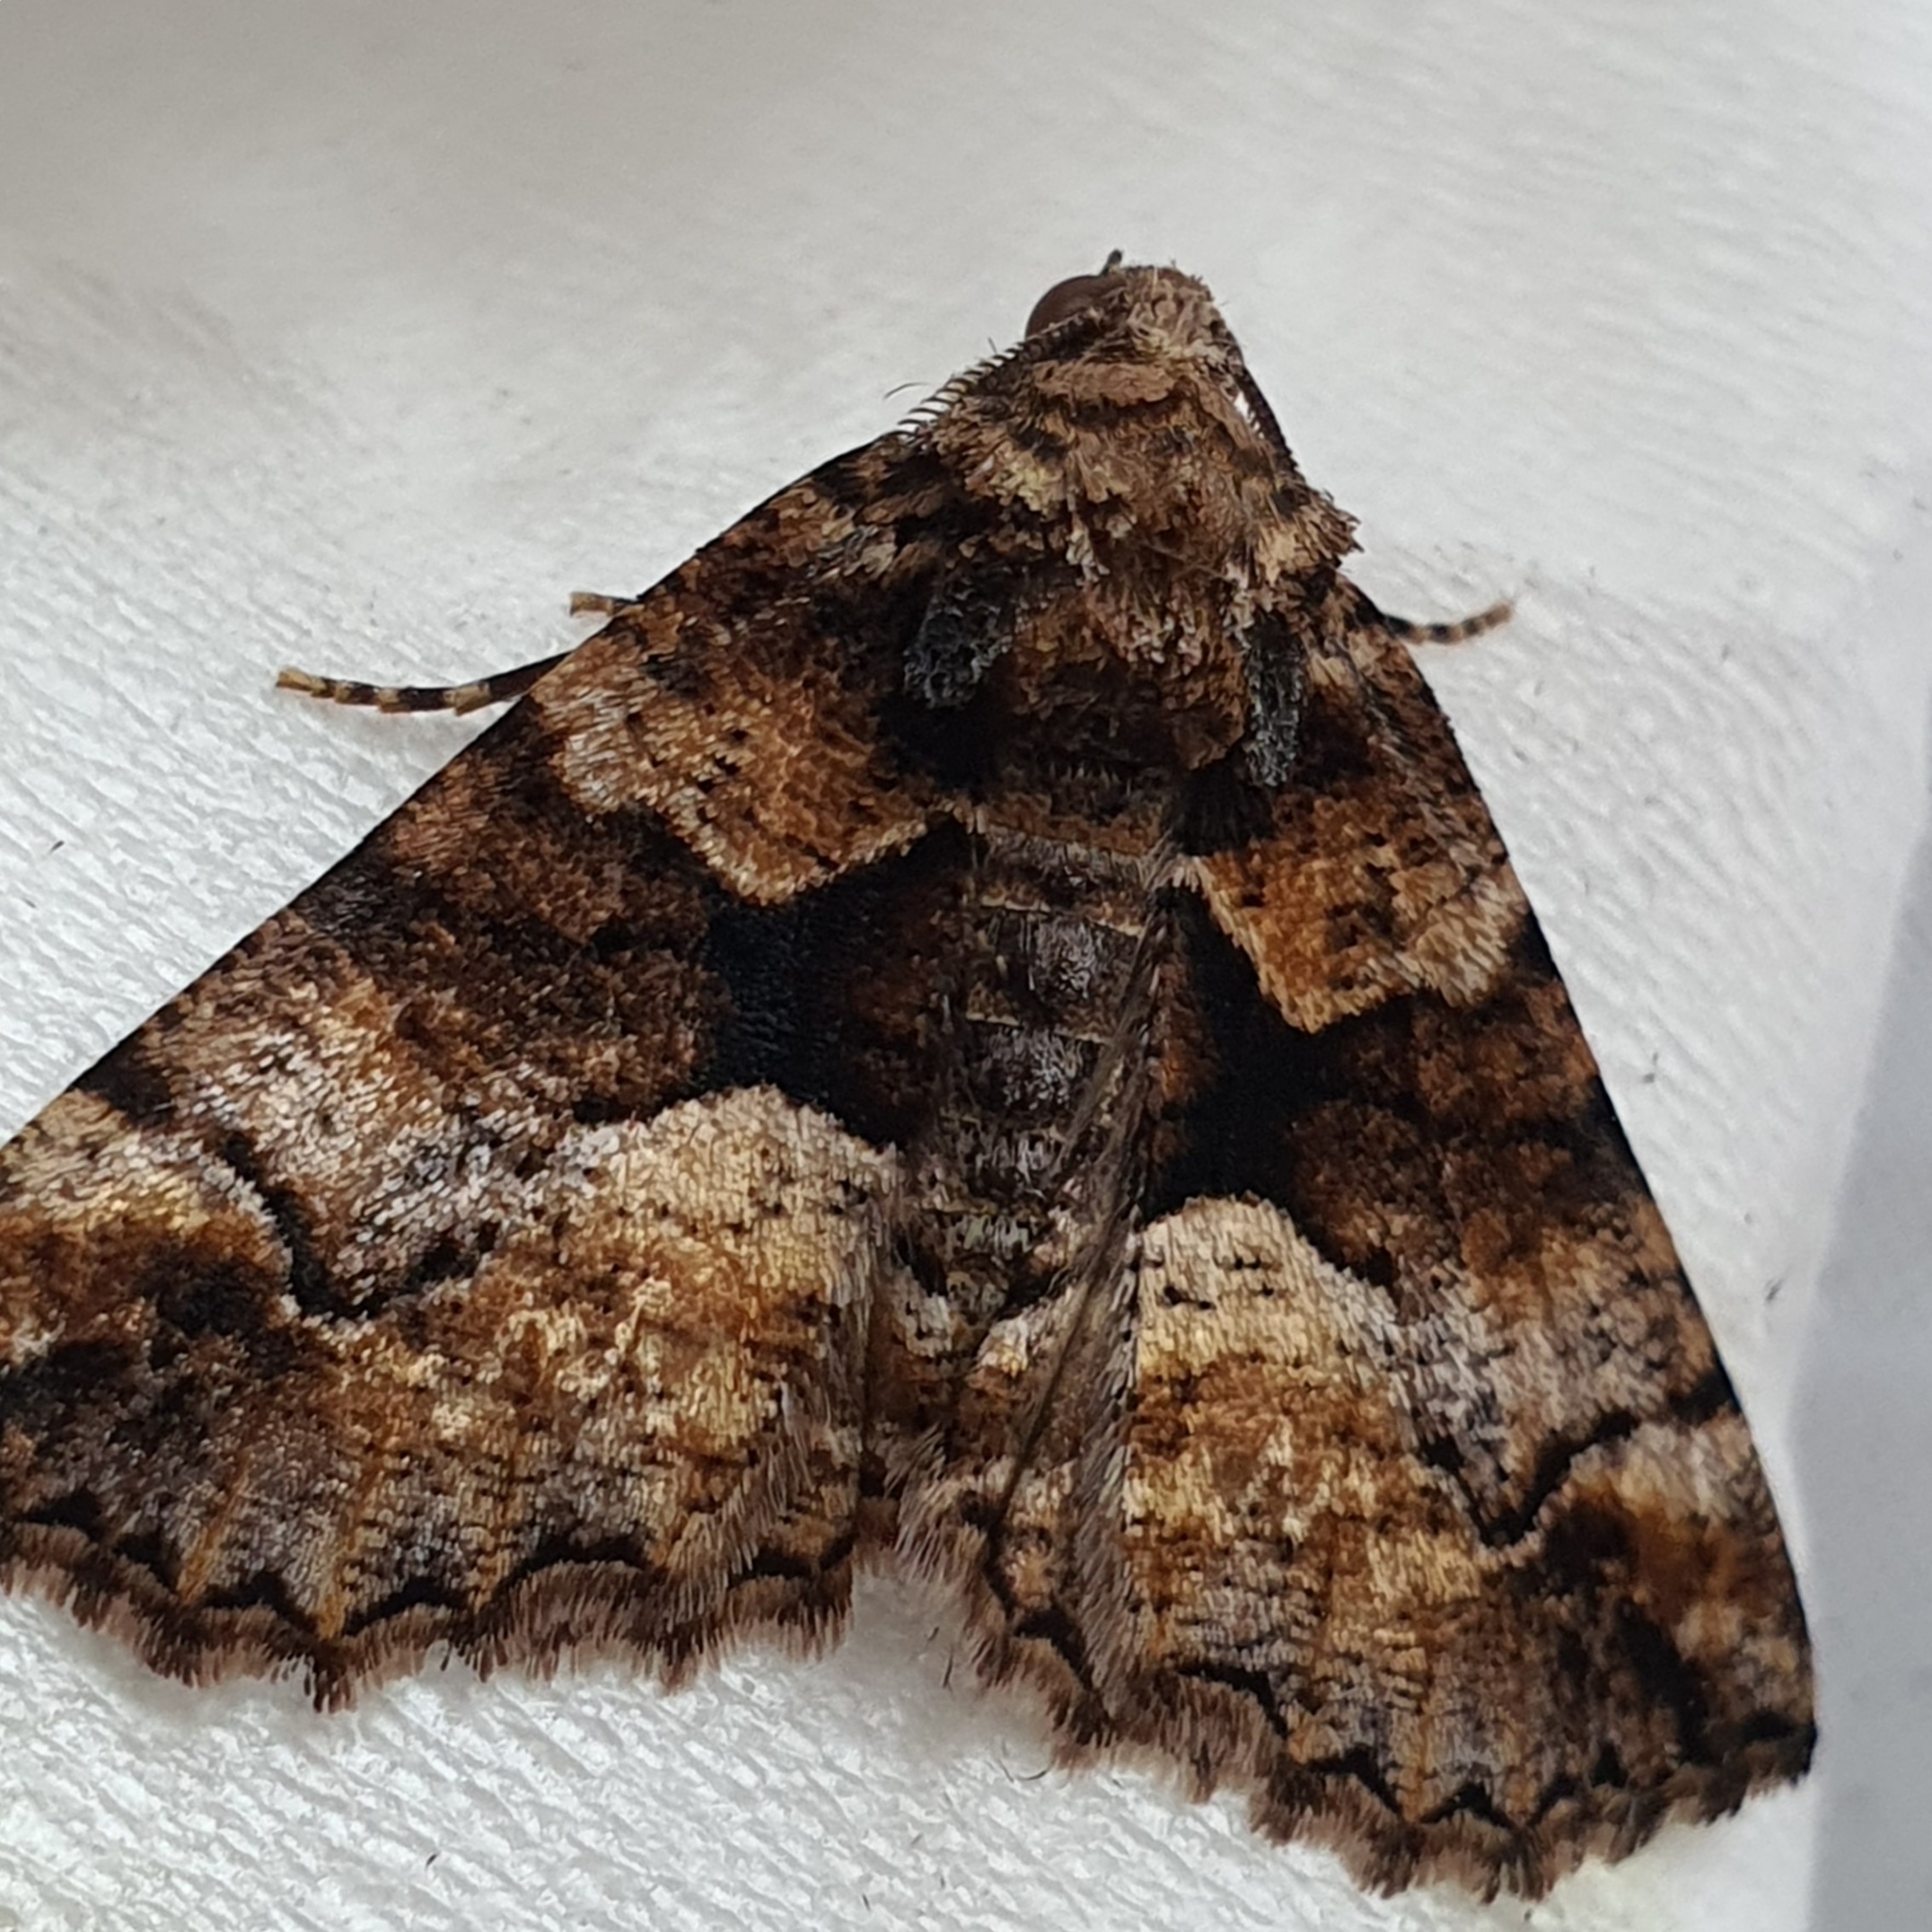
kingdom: Animalia
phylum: Arthropoda
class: Insecta
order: Lepidoptera
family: Geometridae
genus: Gastrina
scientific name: Gastrina cristaria
